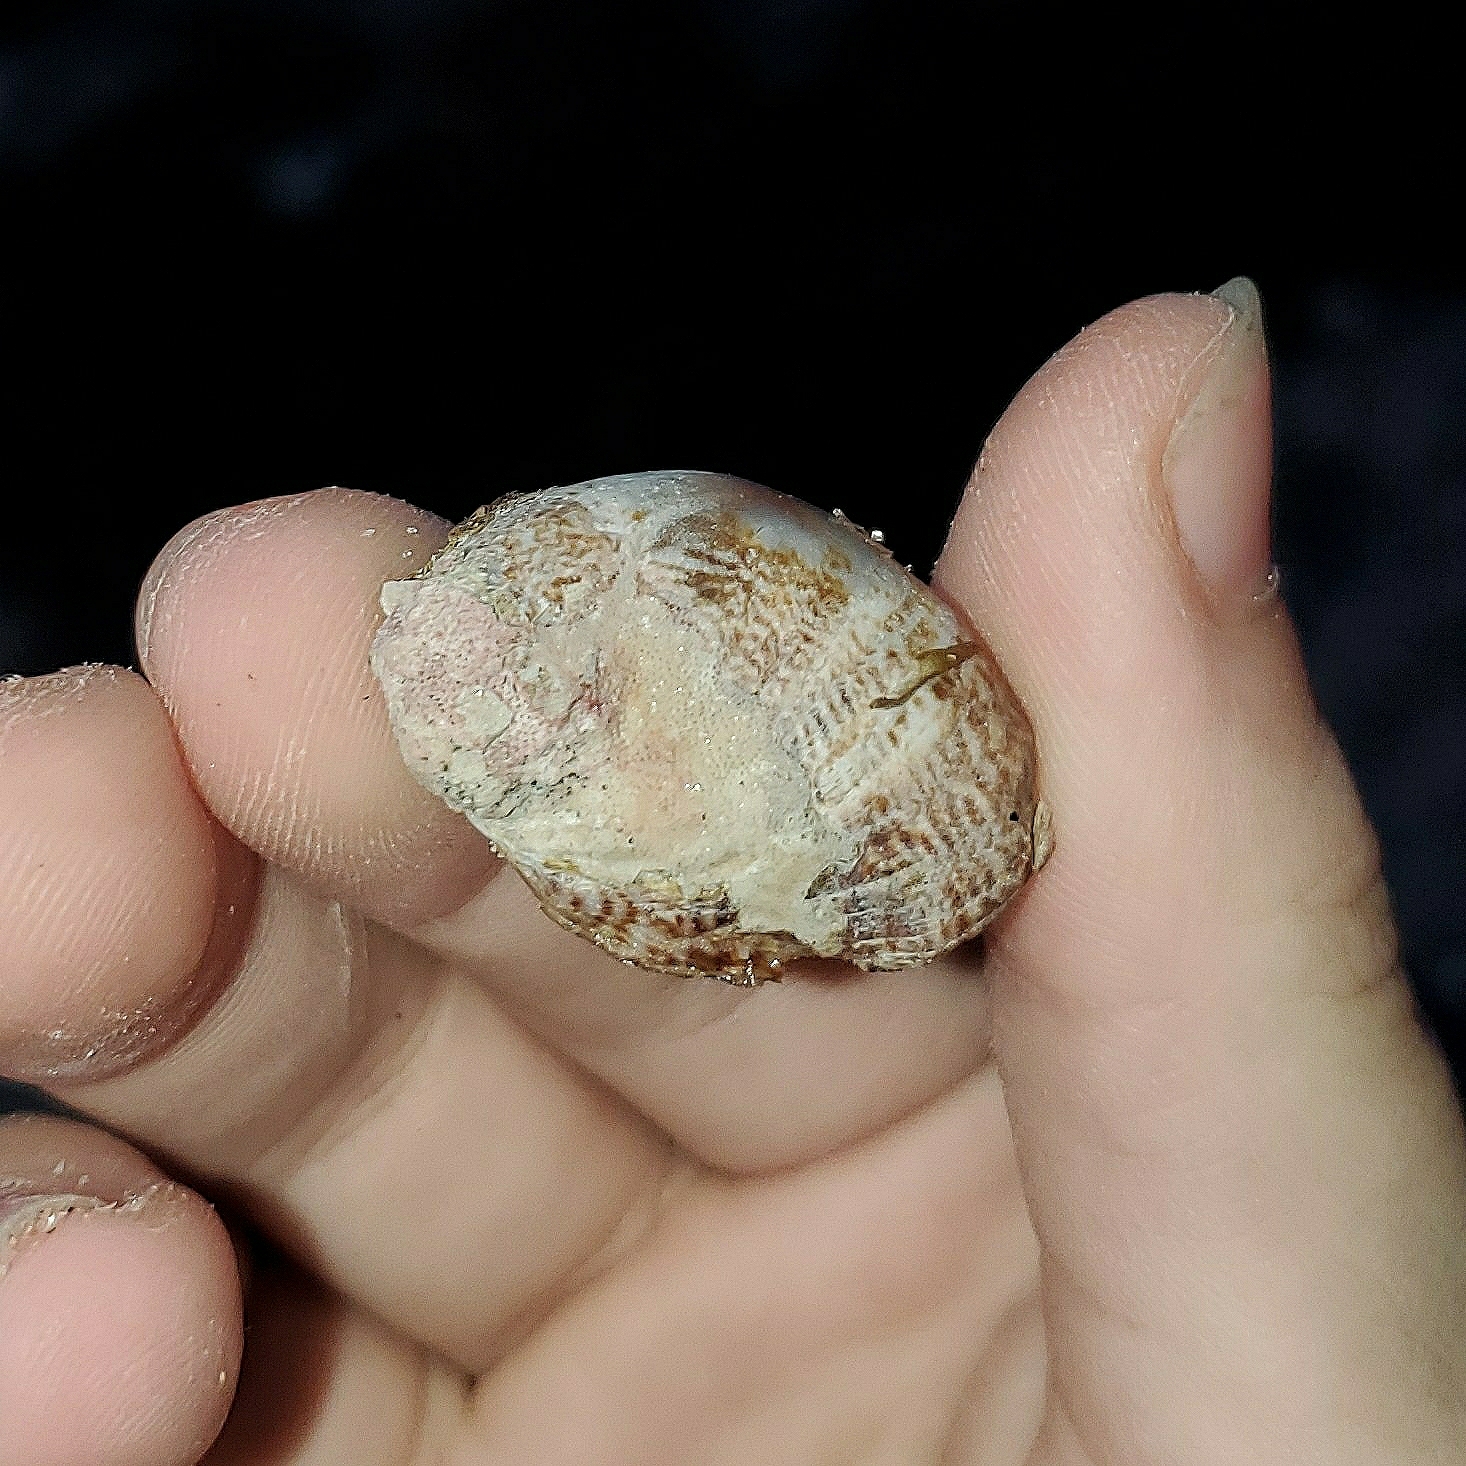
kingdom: Animalia
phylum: Mollusca
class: Gastropoda
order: Littorinimorpha
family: Calyptraeidae
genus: Crepidula
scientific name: Crepidula fornicata
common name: Slipper limpet
